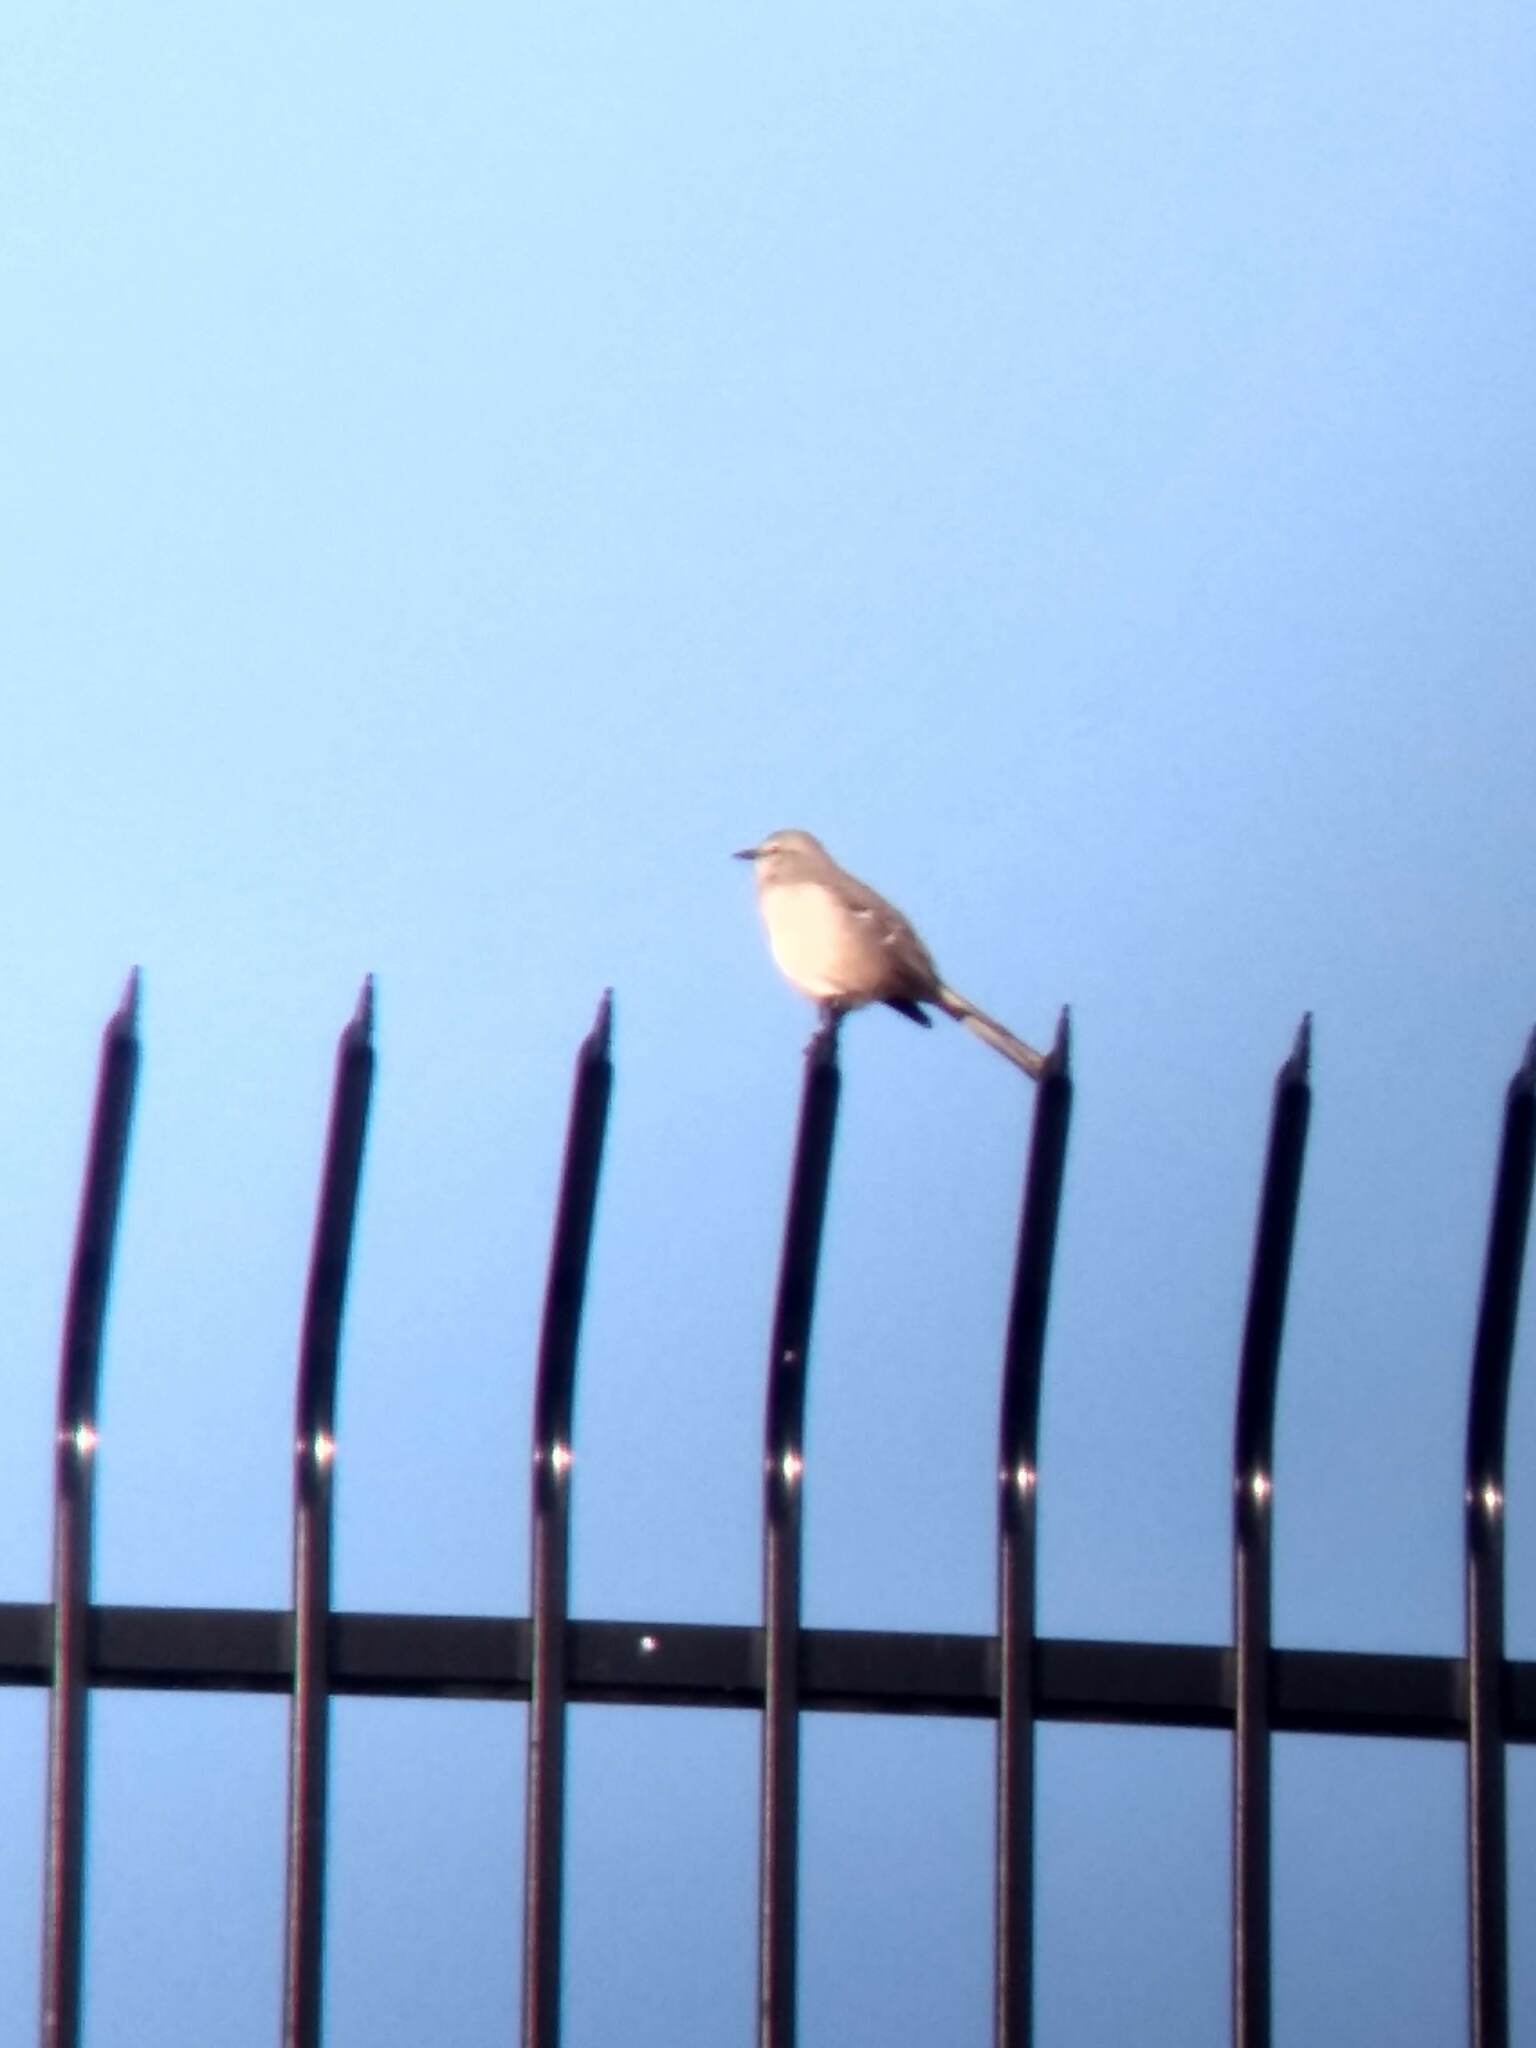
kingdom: Animalia
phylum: Chordata
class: Aves
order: Passeriformes
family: Mimidae
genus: Mimus
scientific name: Mimus polyglottos
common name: Northern mockingbird
